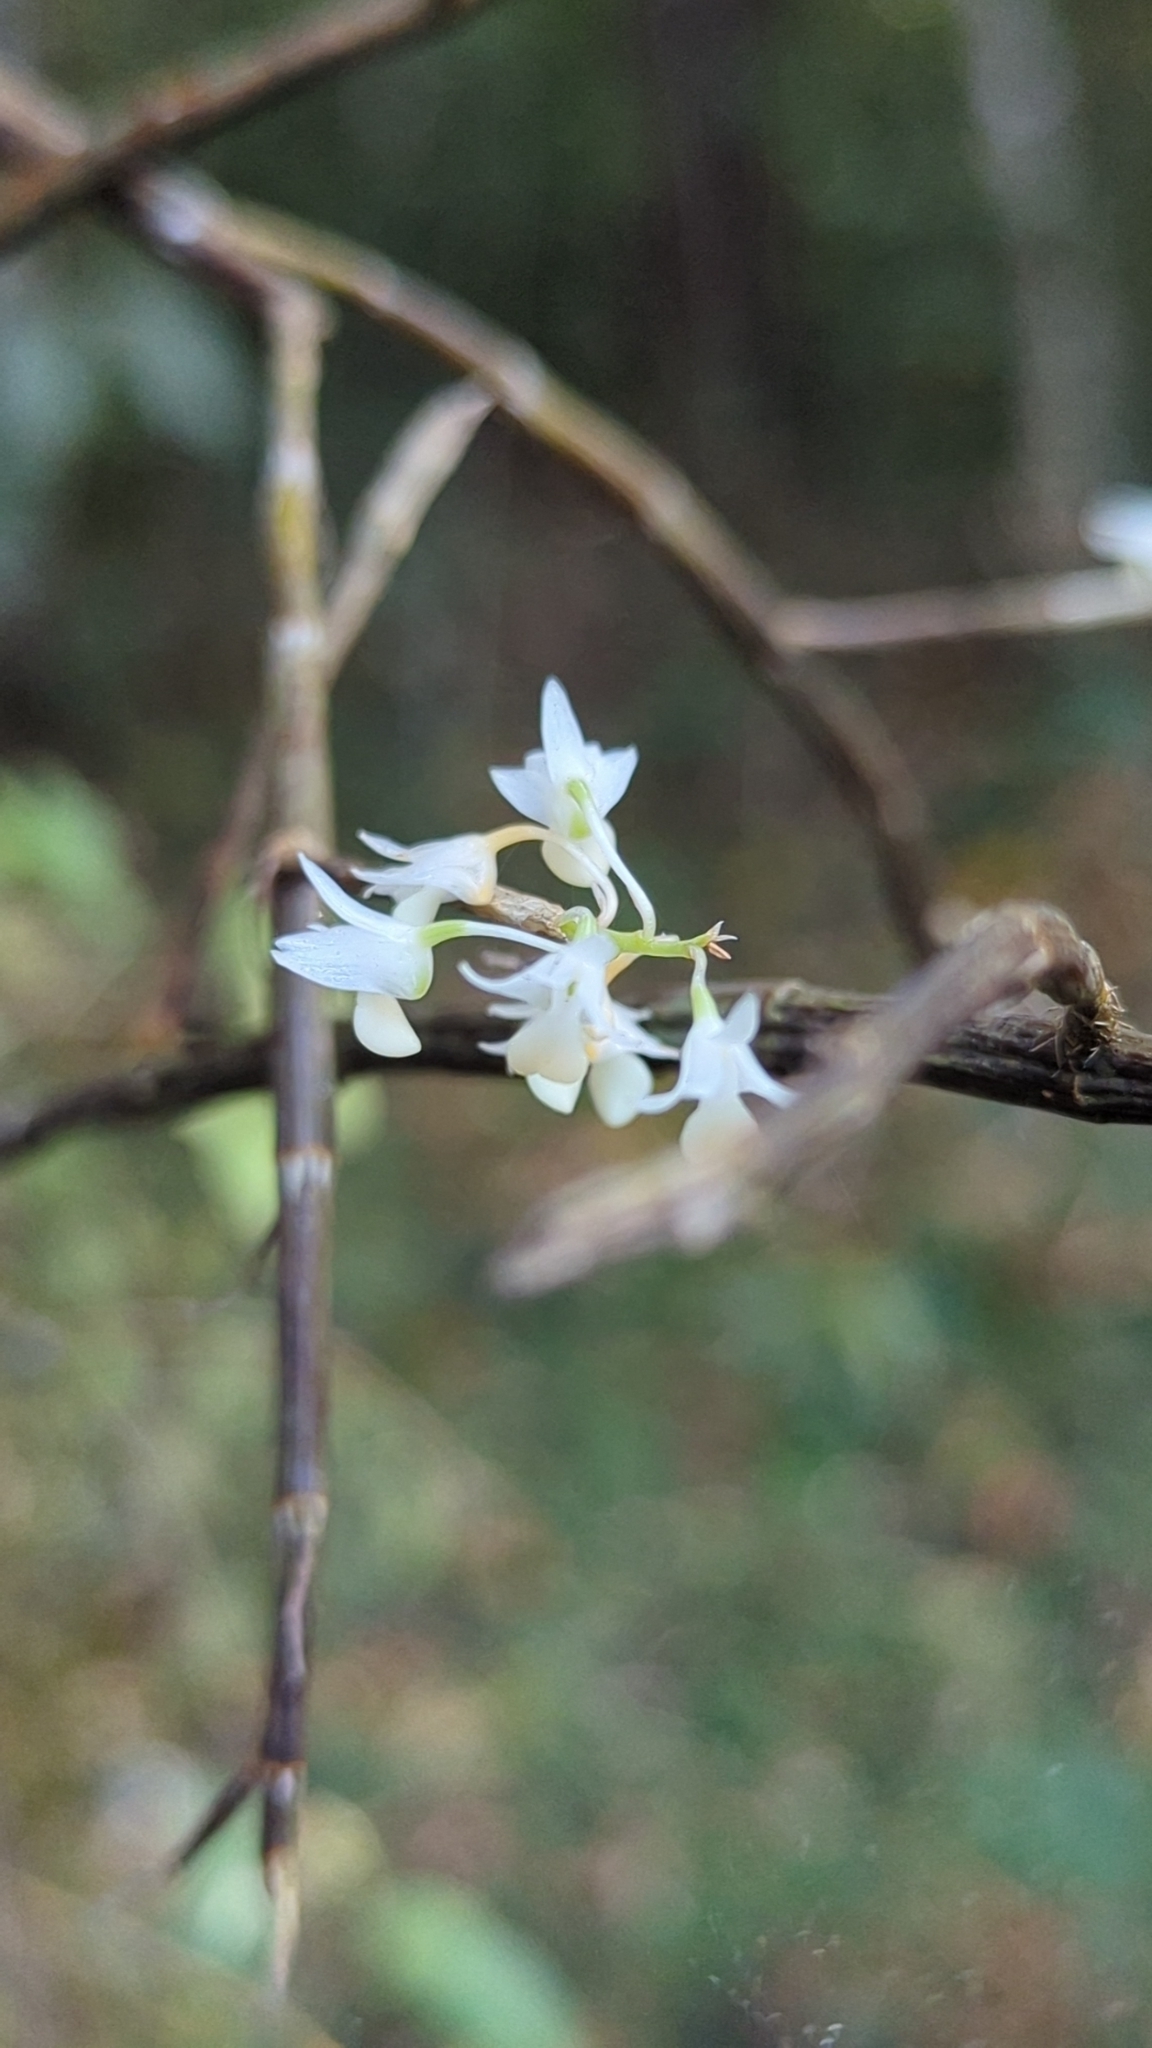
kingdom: Plantae
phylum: Tracheophyta
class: Liliopsida
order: Asparagales
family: Orchidaceae
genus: Dendrobium
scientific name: Dendrobium herbaceum
